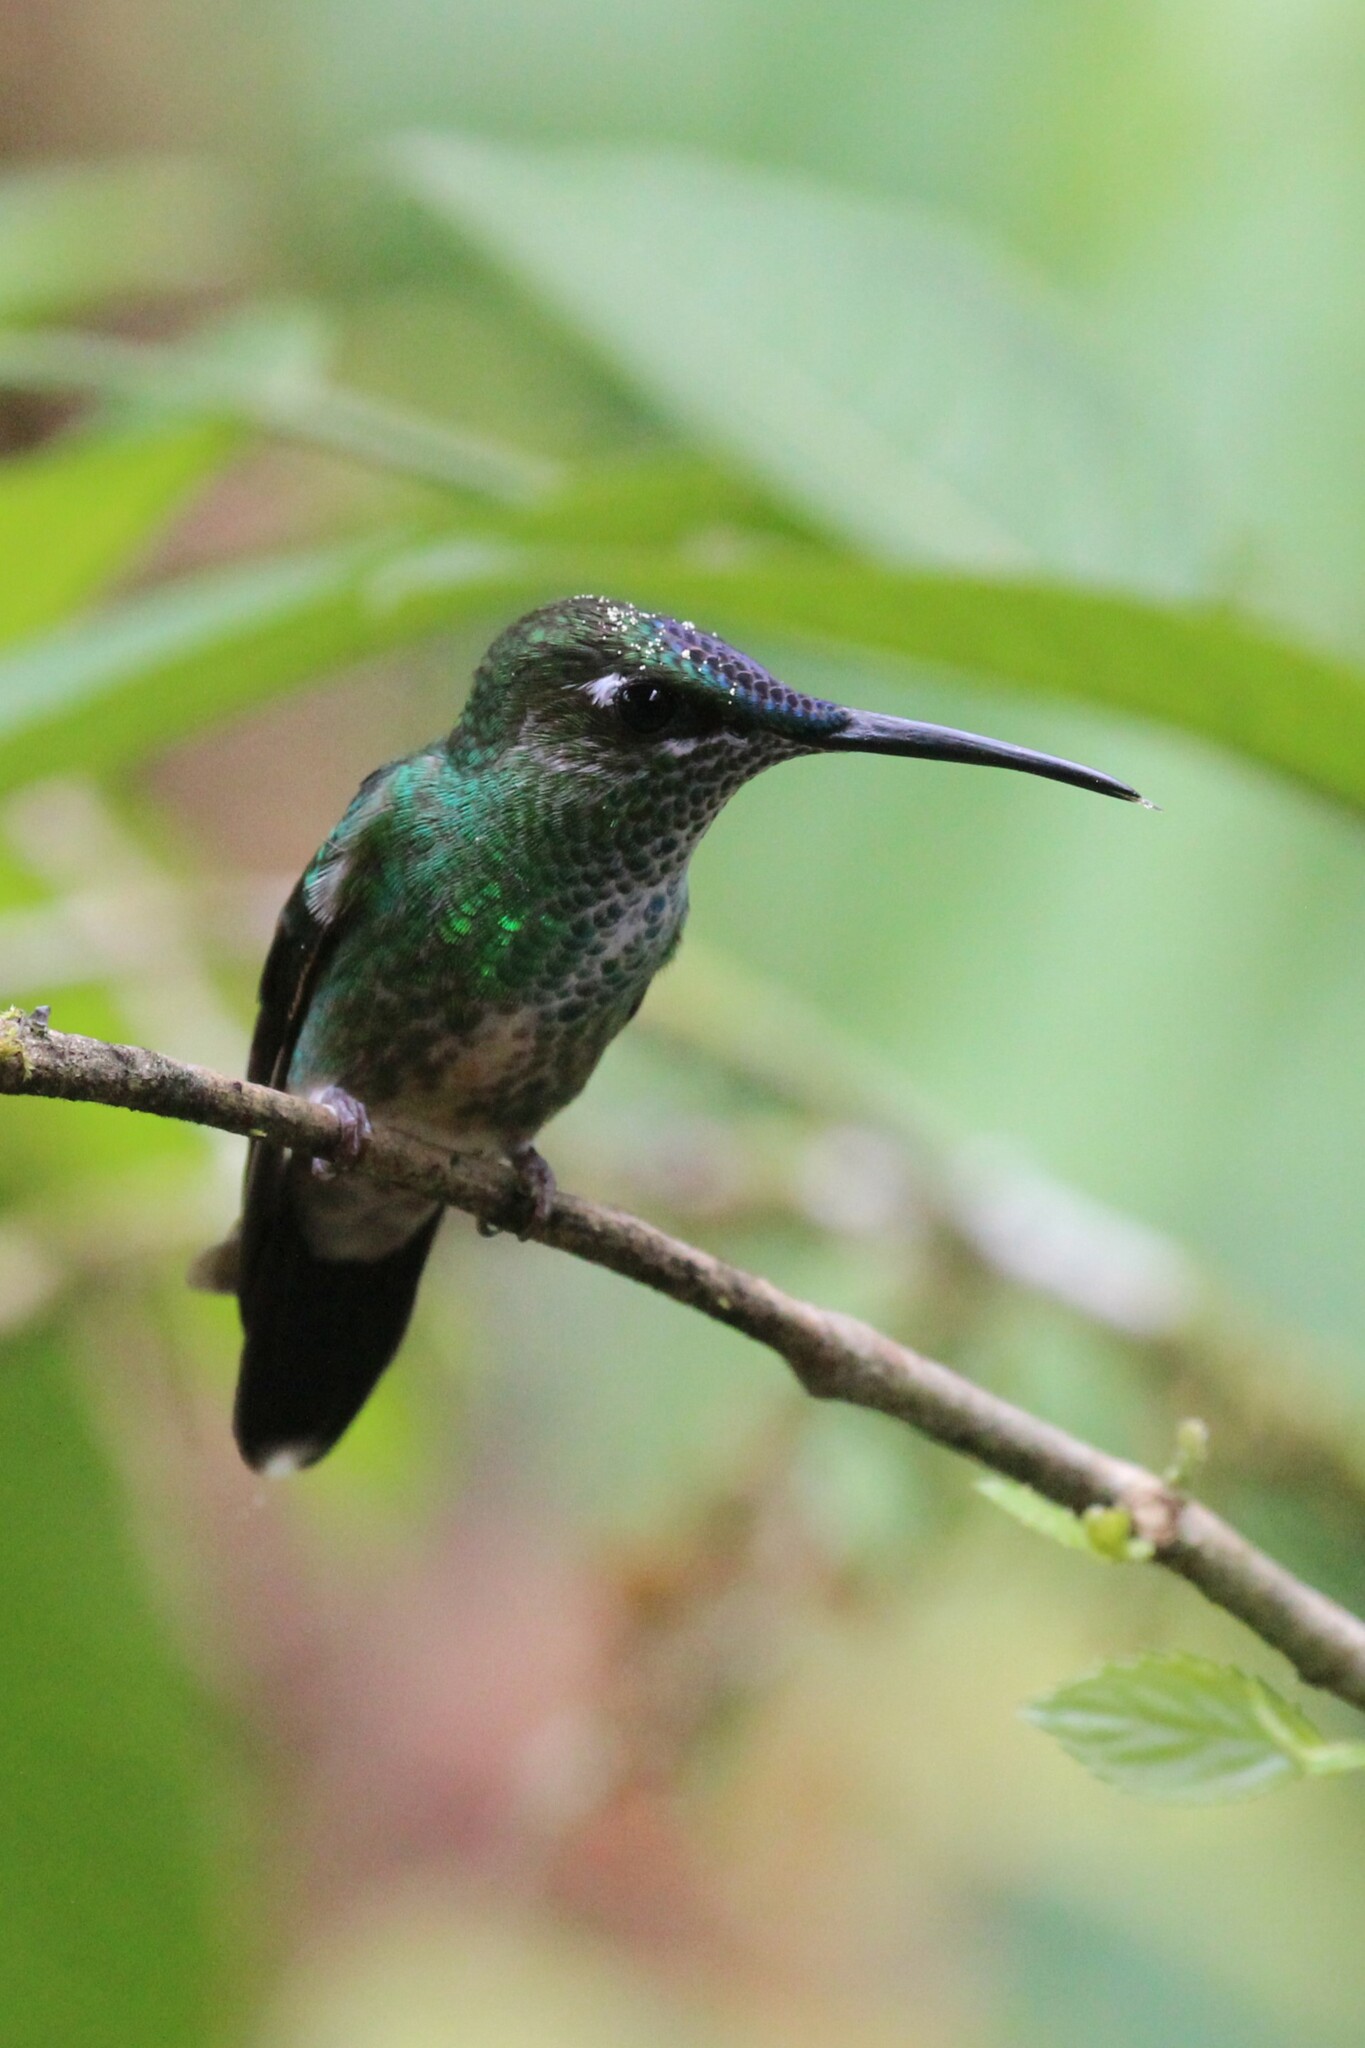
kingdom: Animalia
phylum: Chordata
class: Aves
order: Apodiformes
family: Trochilidae
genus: Heliodoxa
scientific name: Heliodoxa leadbeateri
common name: Violet-fronted brilliant
